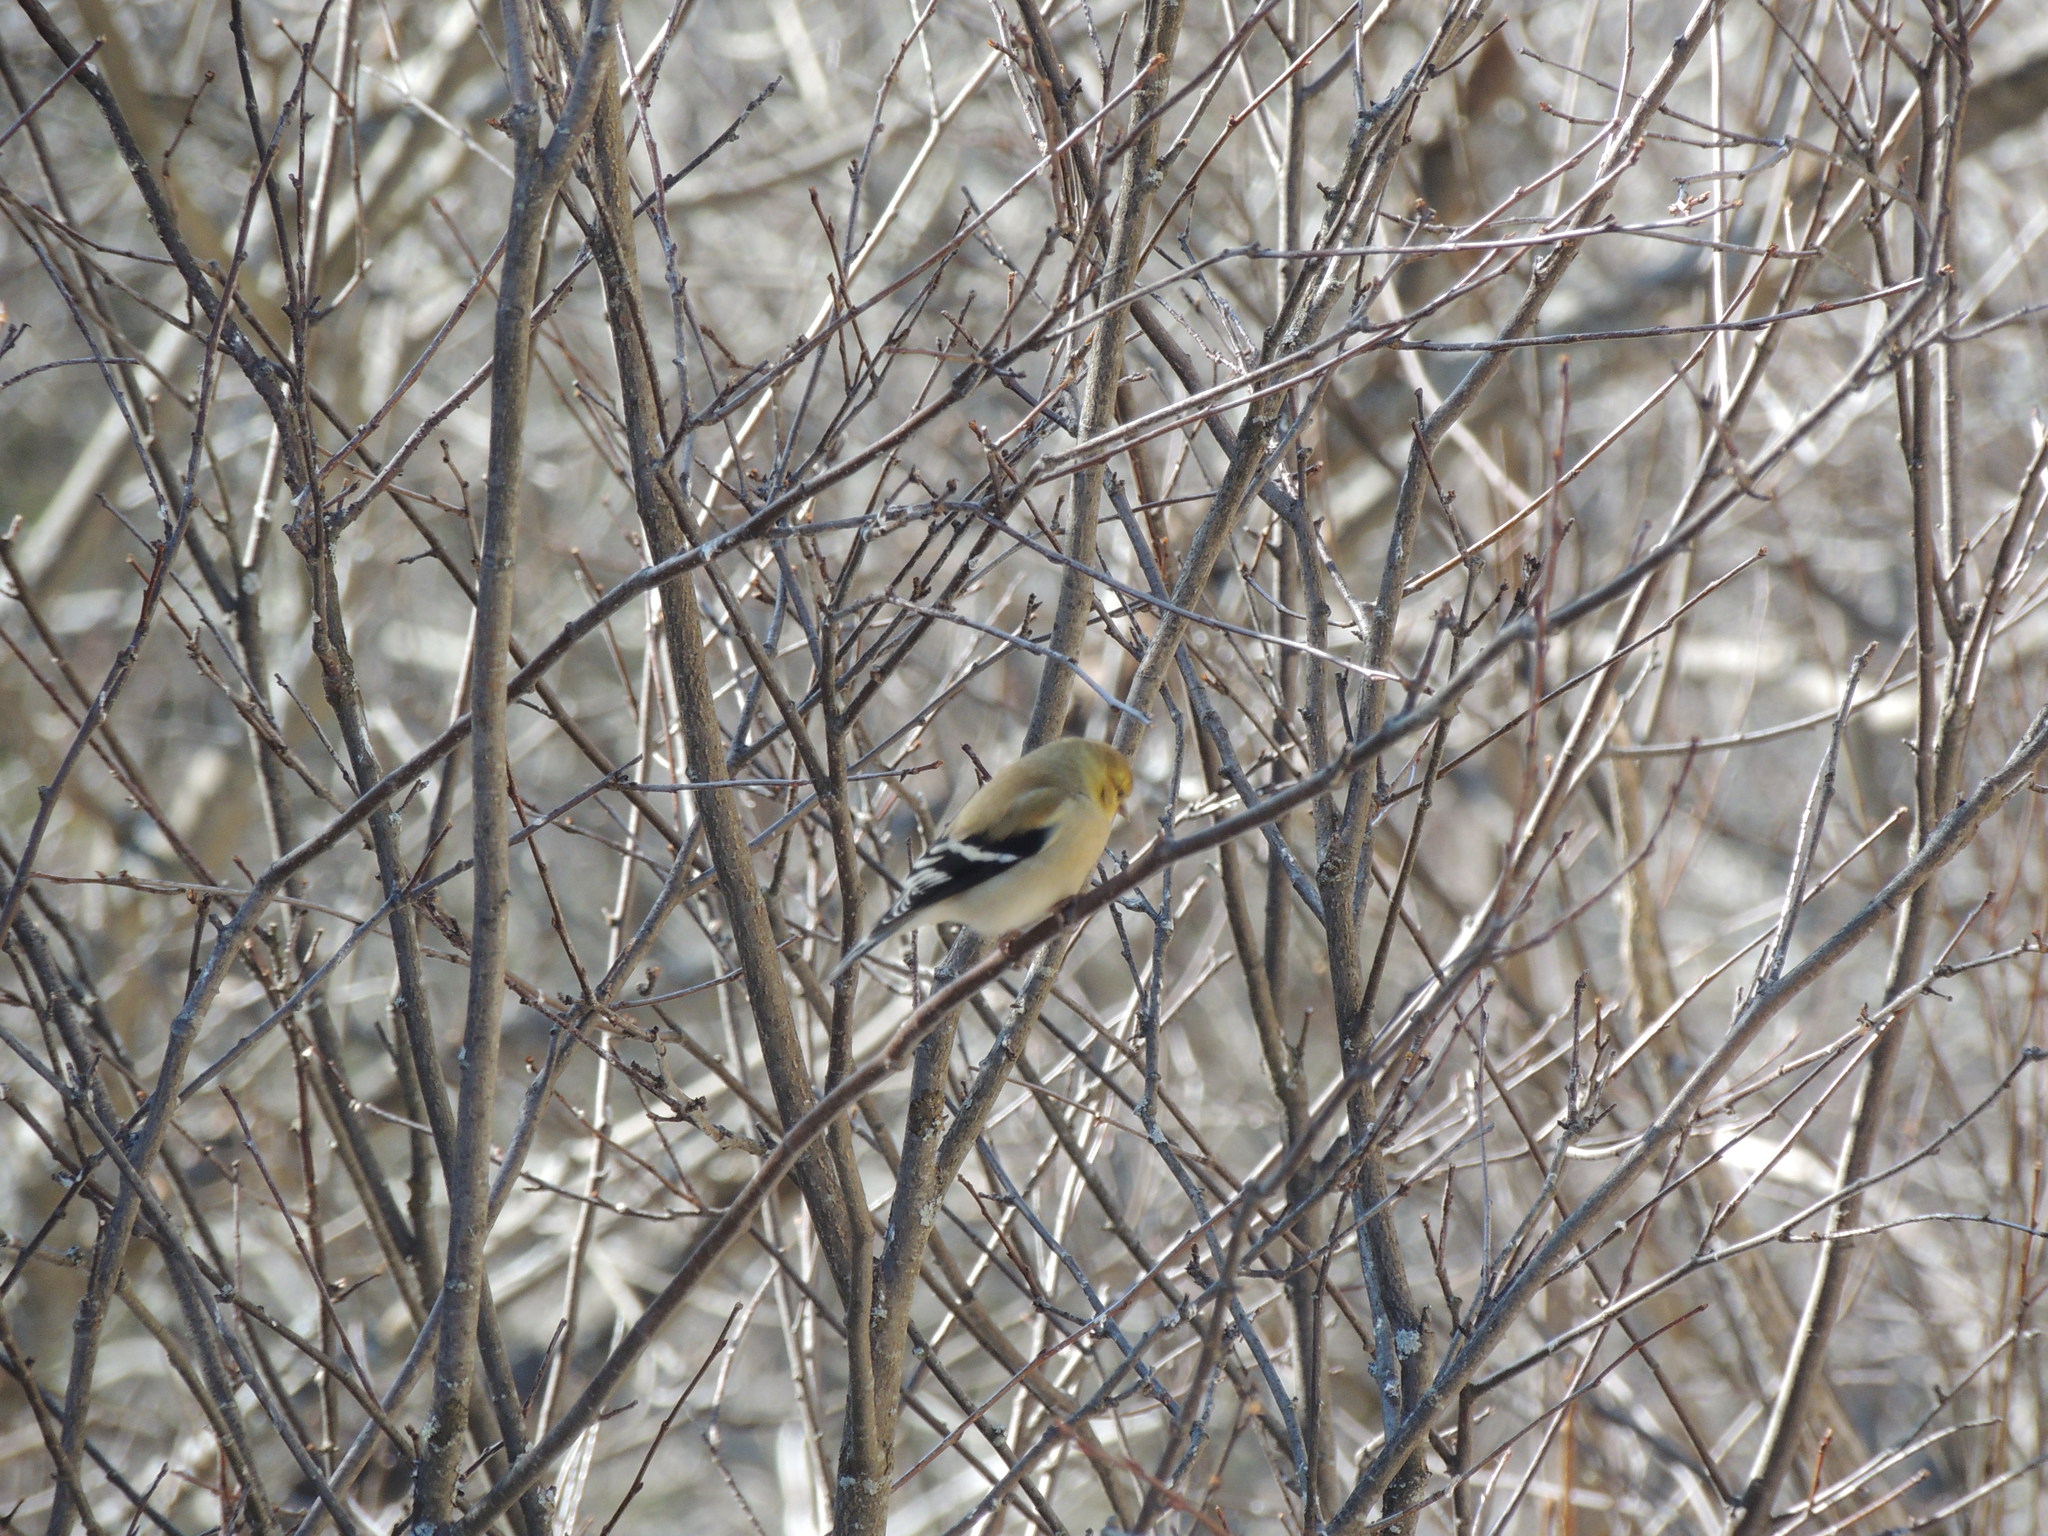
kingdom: Animalia
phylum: Chordata
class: Aves
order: Passeriformes
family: Fringillidae
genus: Spinus
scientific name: Spinus tristis
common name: American goldfinch
